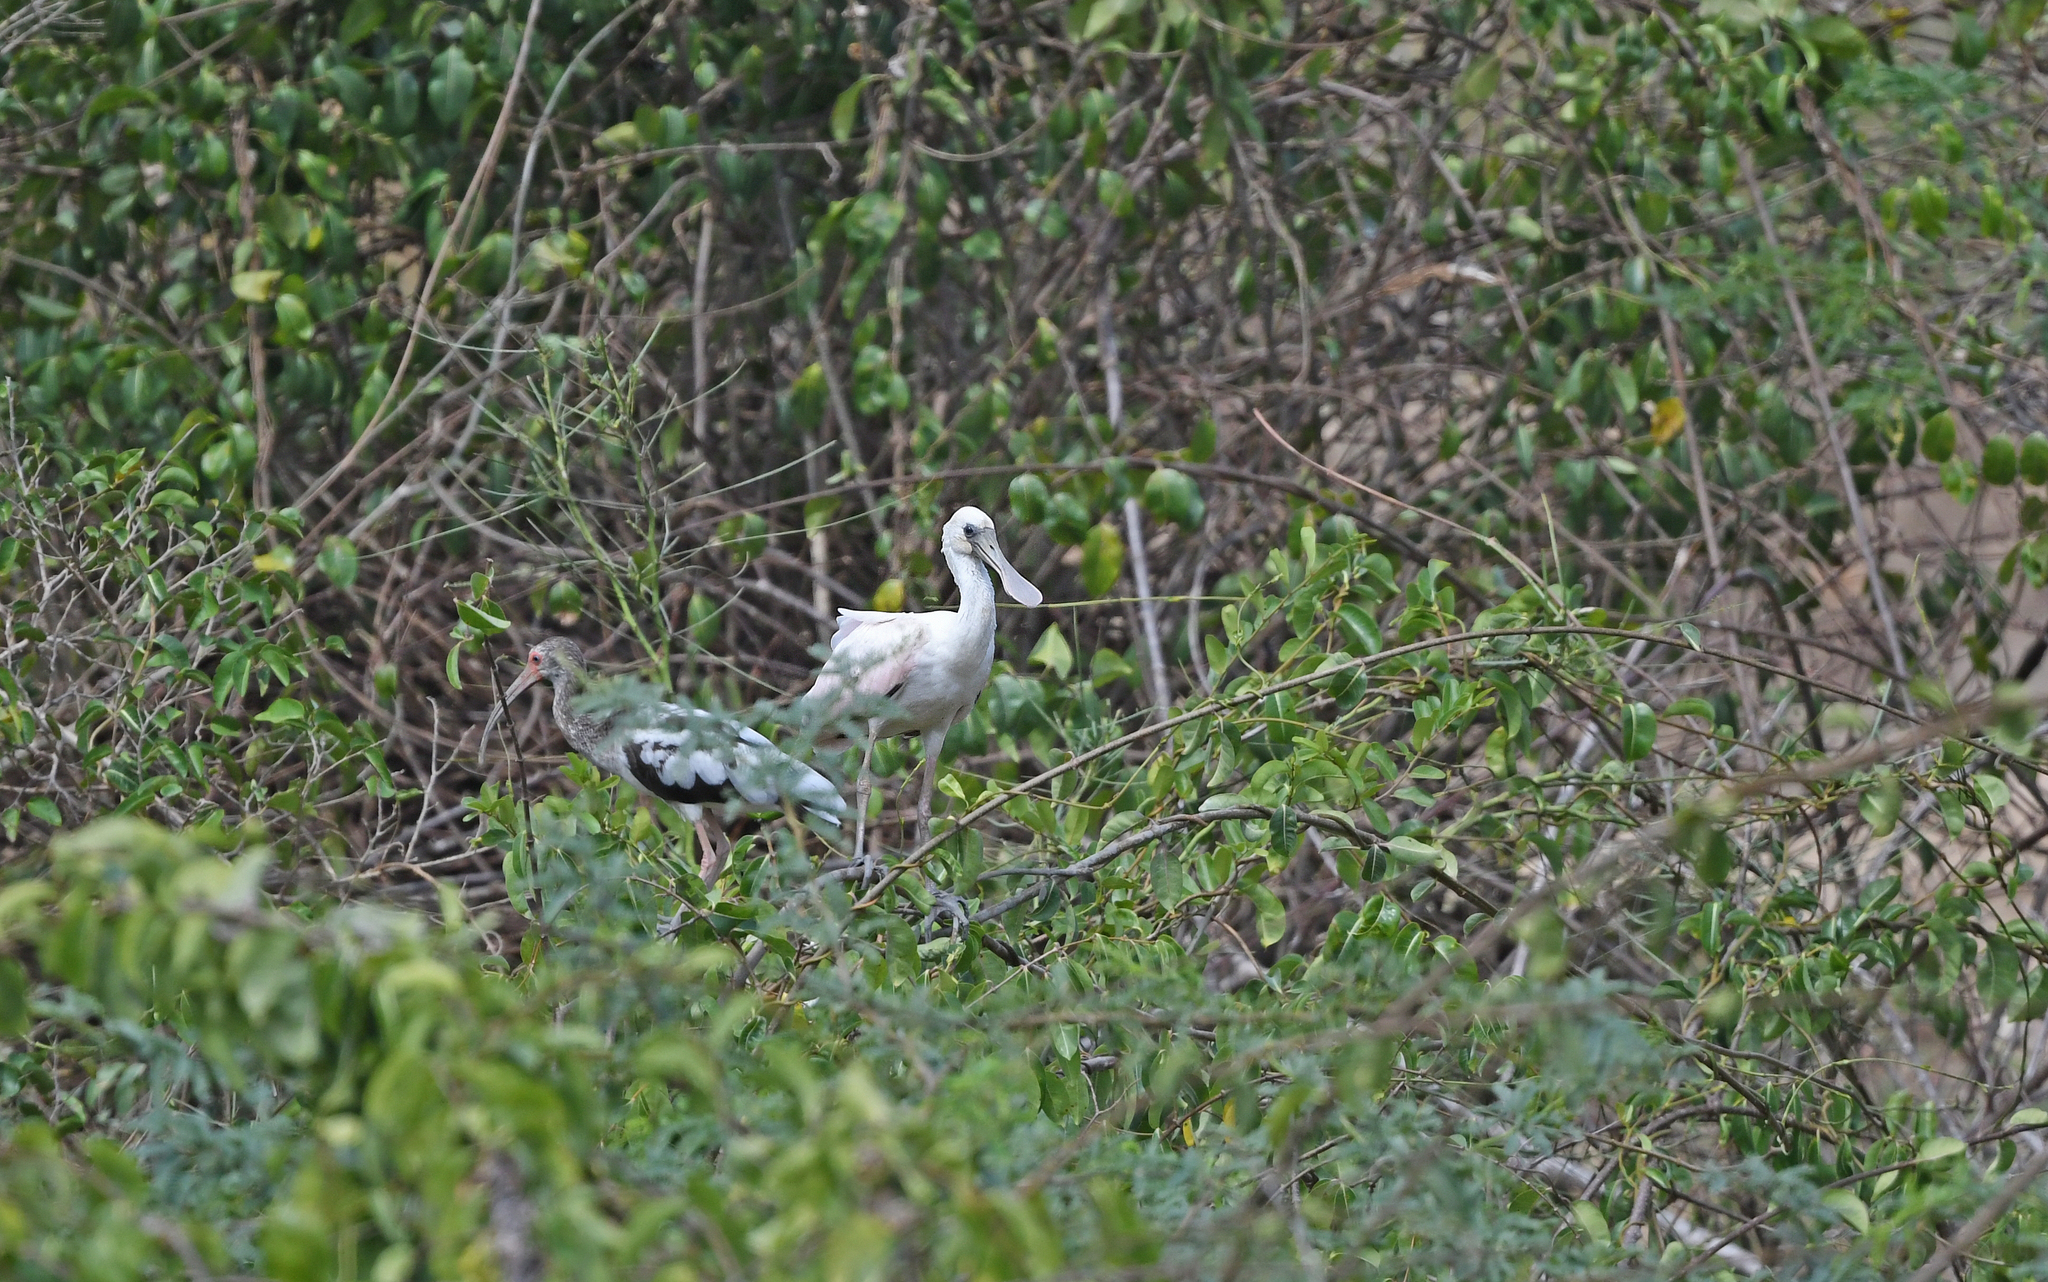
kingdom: Animalia
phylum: Chordata
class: Aves
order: Pelecaniformes
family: Threskiornithidae
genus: Platalea
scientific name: Platalea ajaja
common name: Roseate spoonbill
